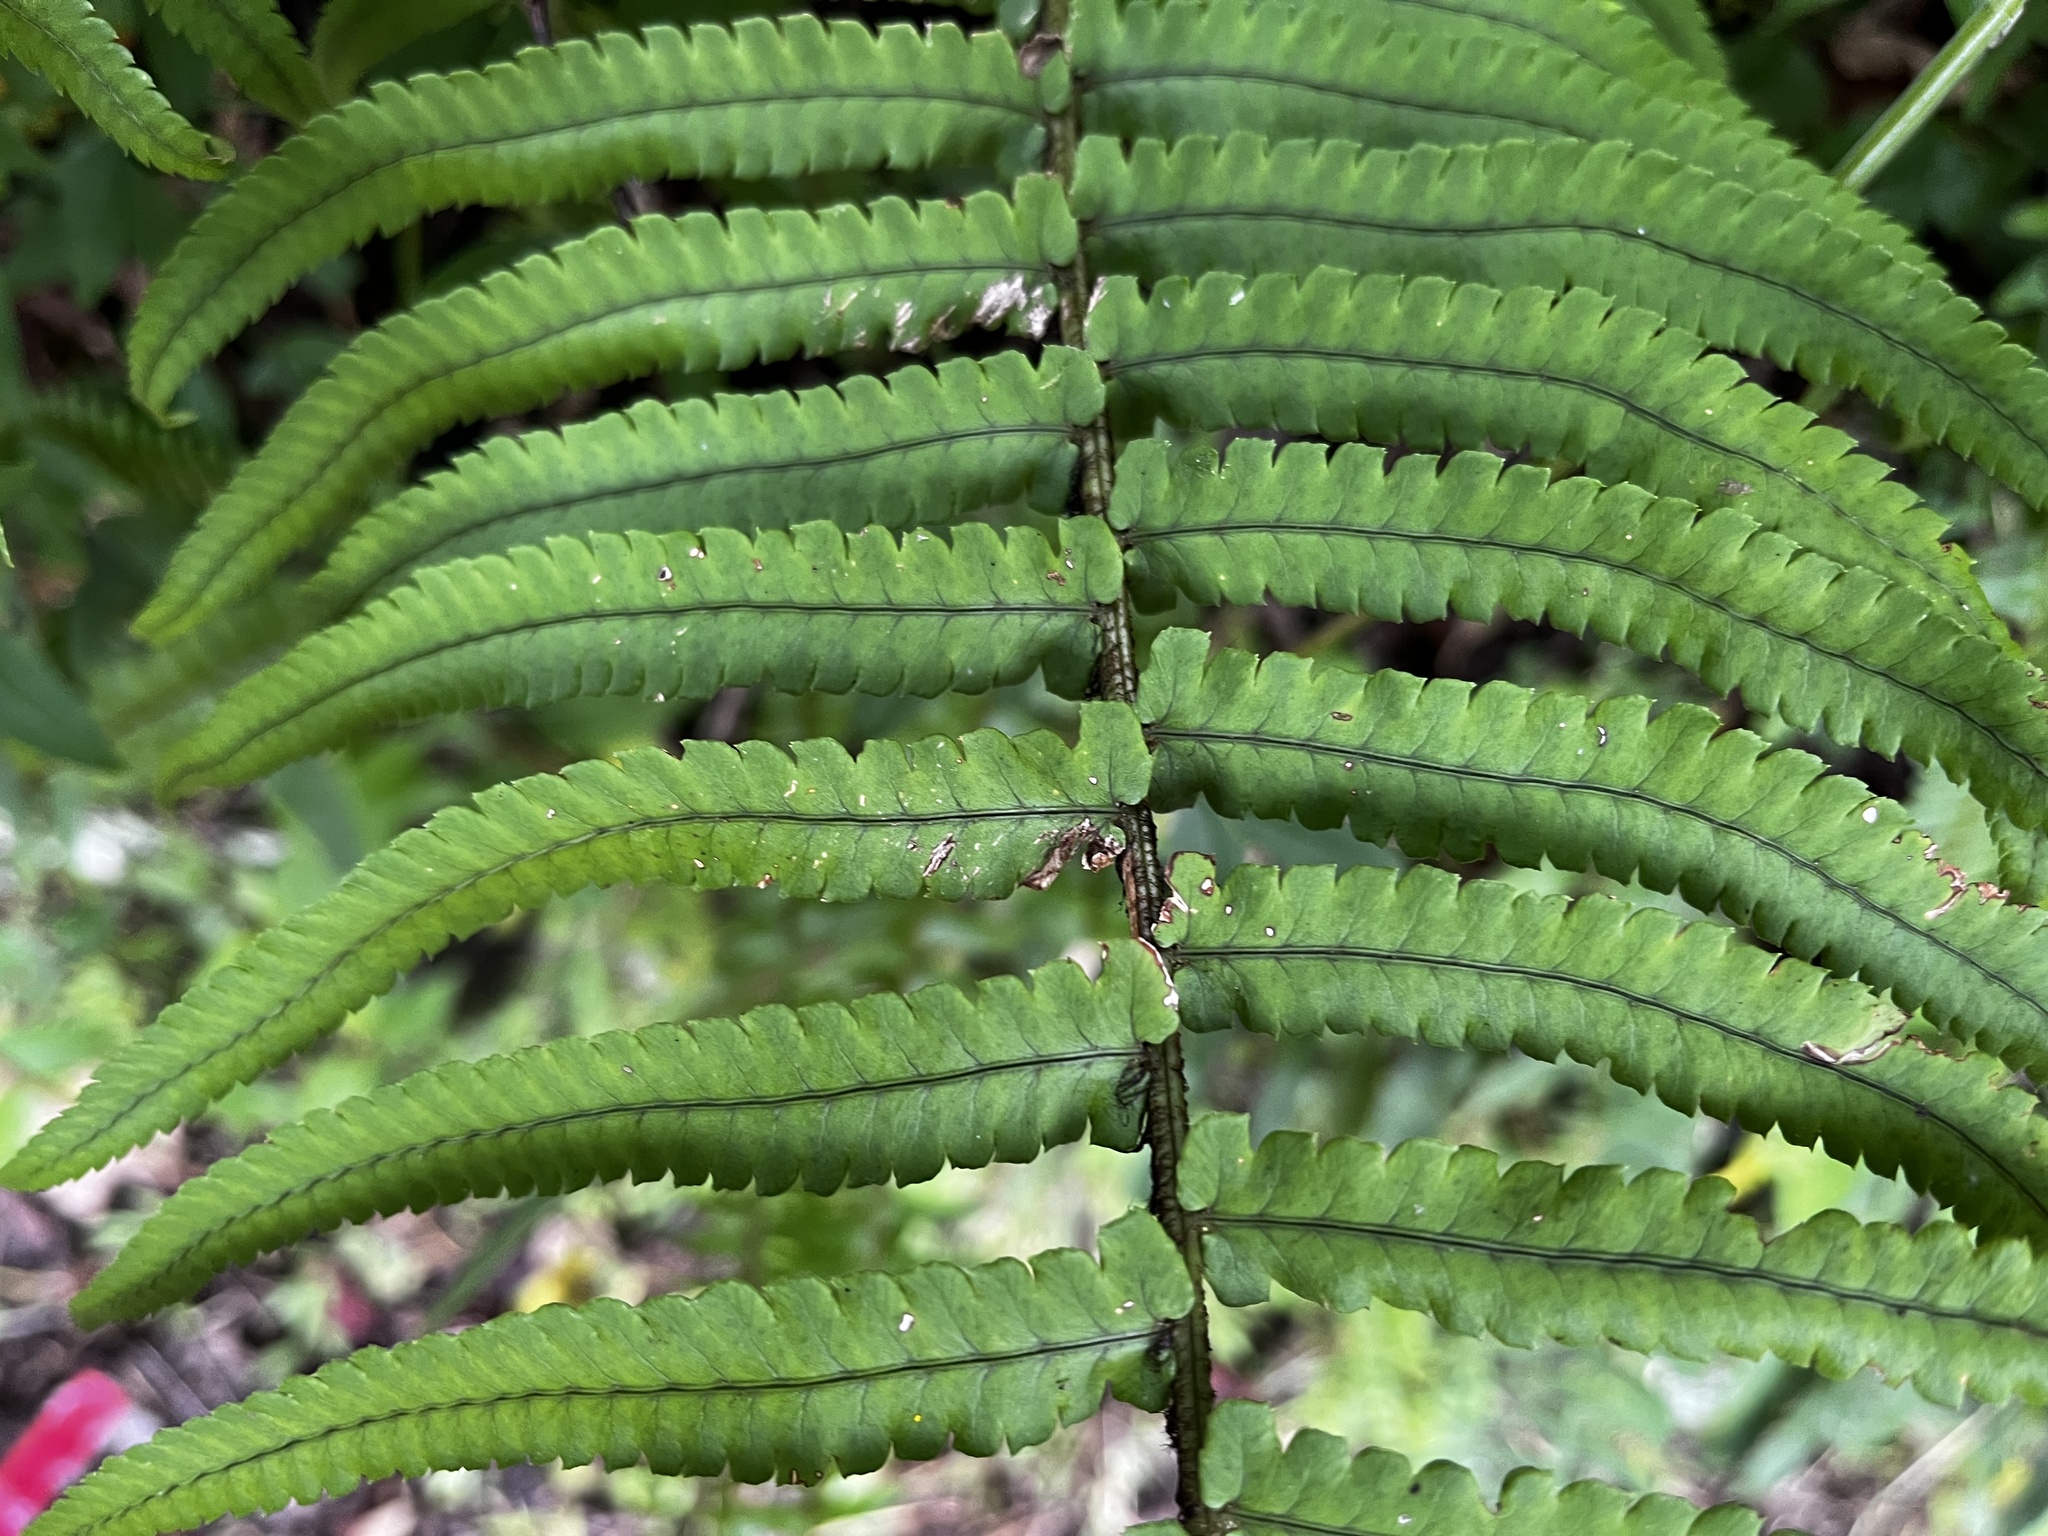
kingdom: Plantae
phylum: Tracheophyta
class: Polypodiopsida
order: Polypodiales
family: Dryopteridaceae
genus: Dryopteris
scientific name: Dryopteris cycadina
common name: Shaggy wood fern
